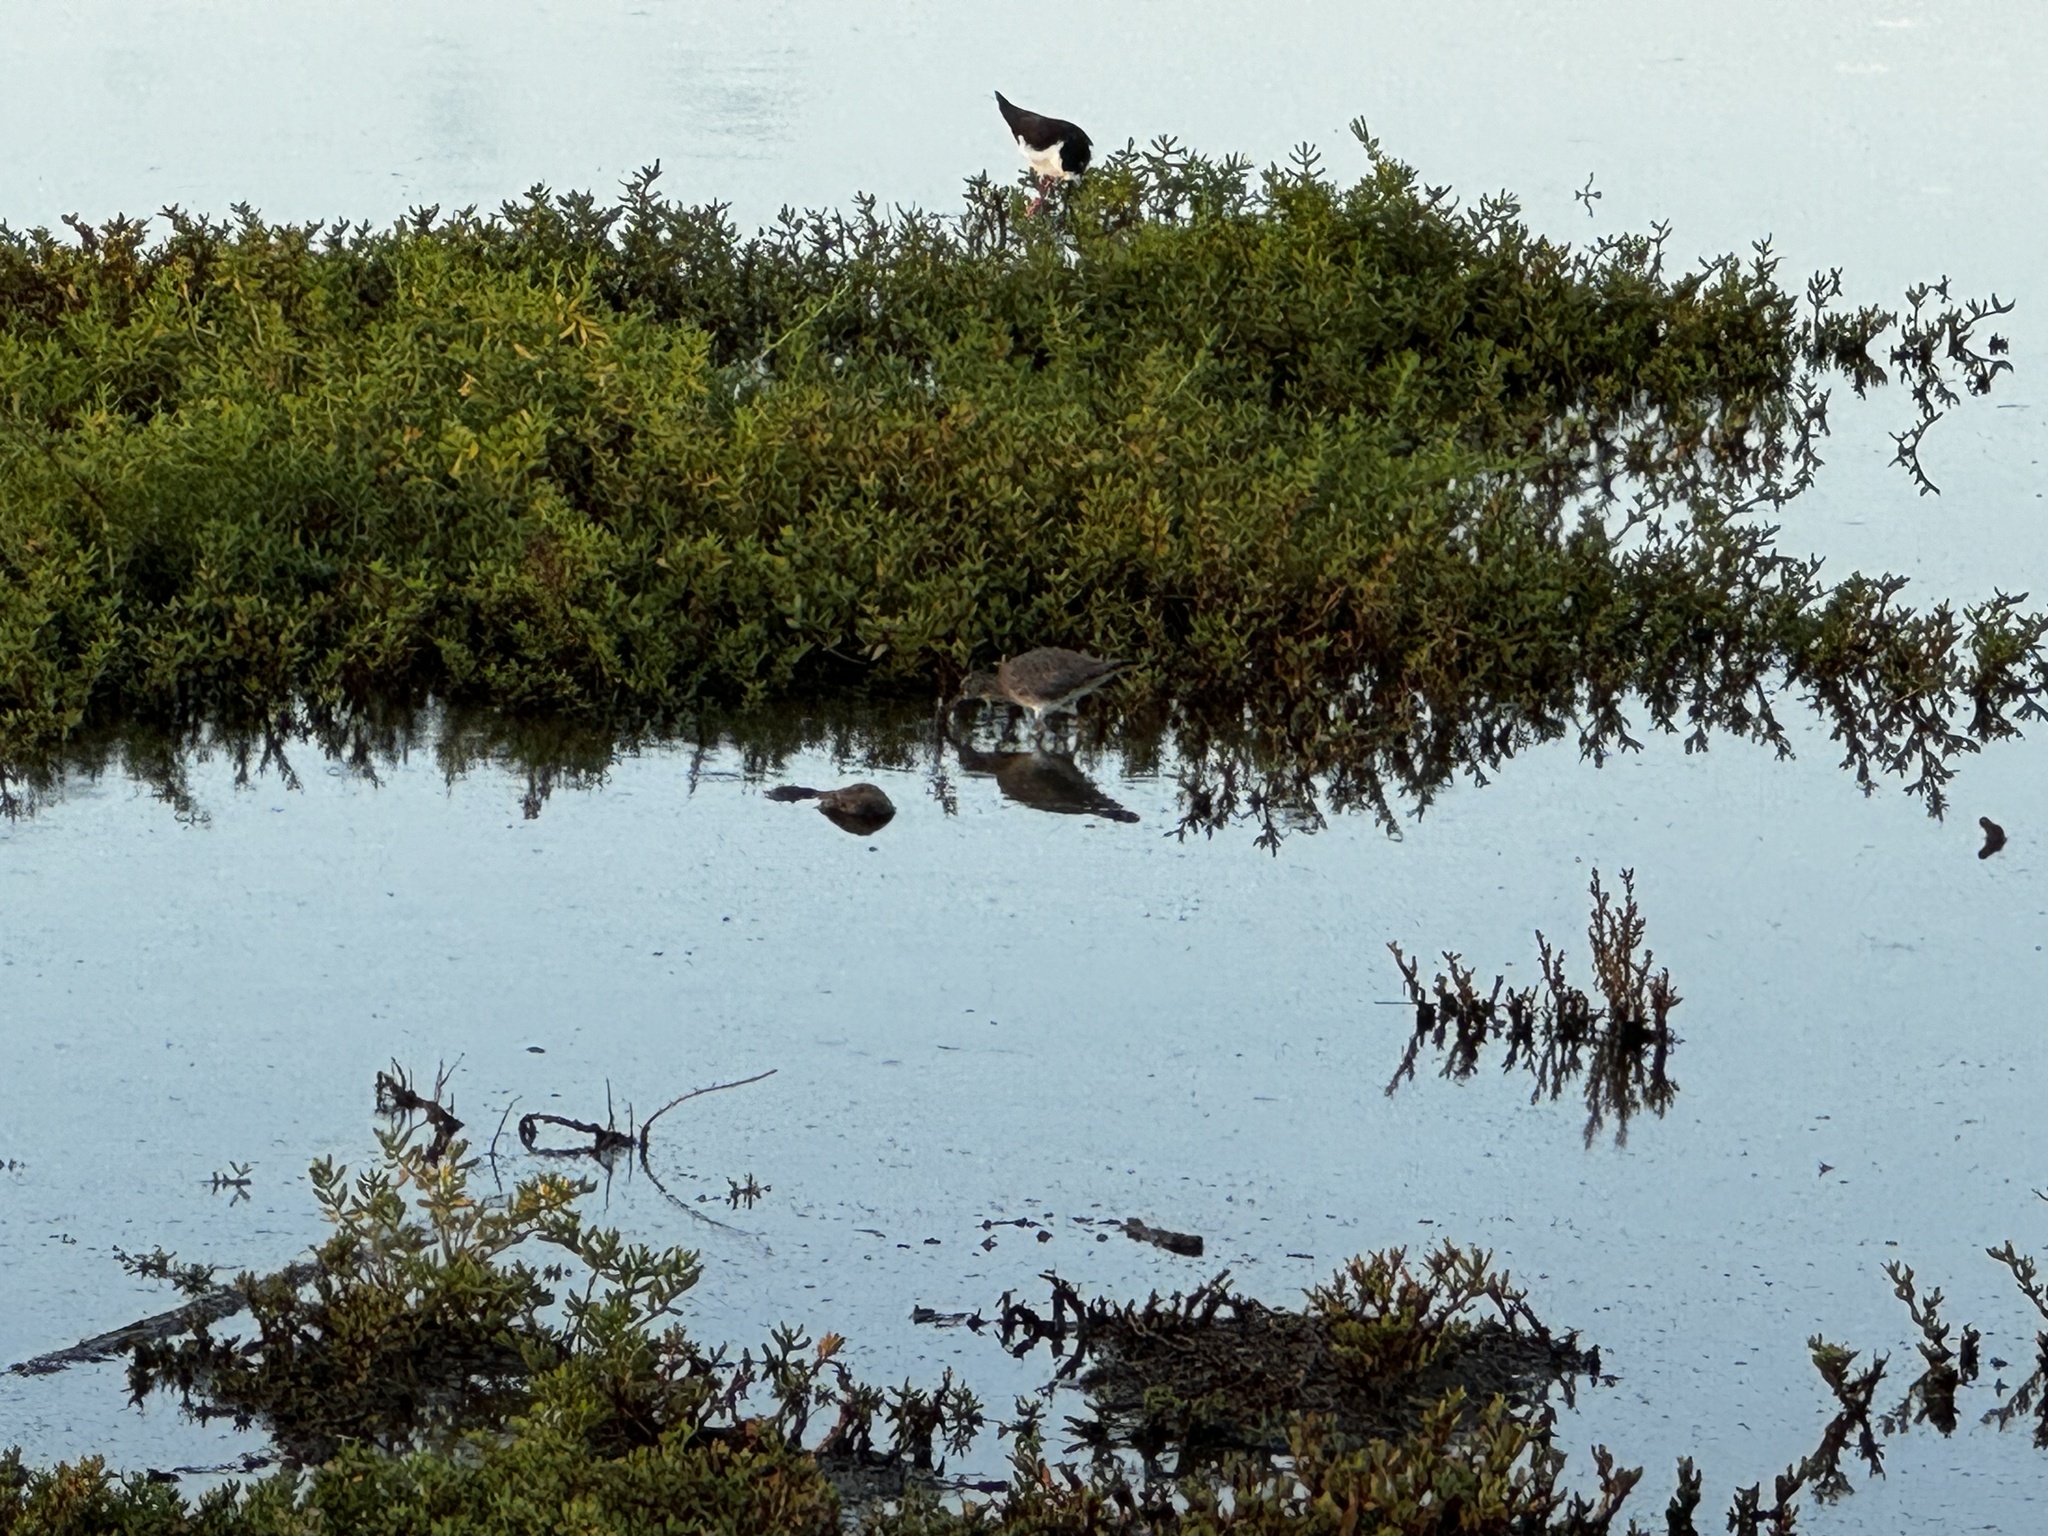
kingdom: Animalia
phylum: Chordata
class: Aves
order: Charadriiformes
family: Scolopacidae
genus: Tringa
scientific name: Tringa incana
